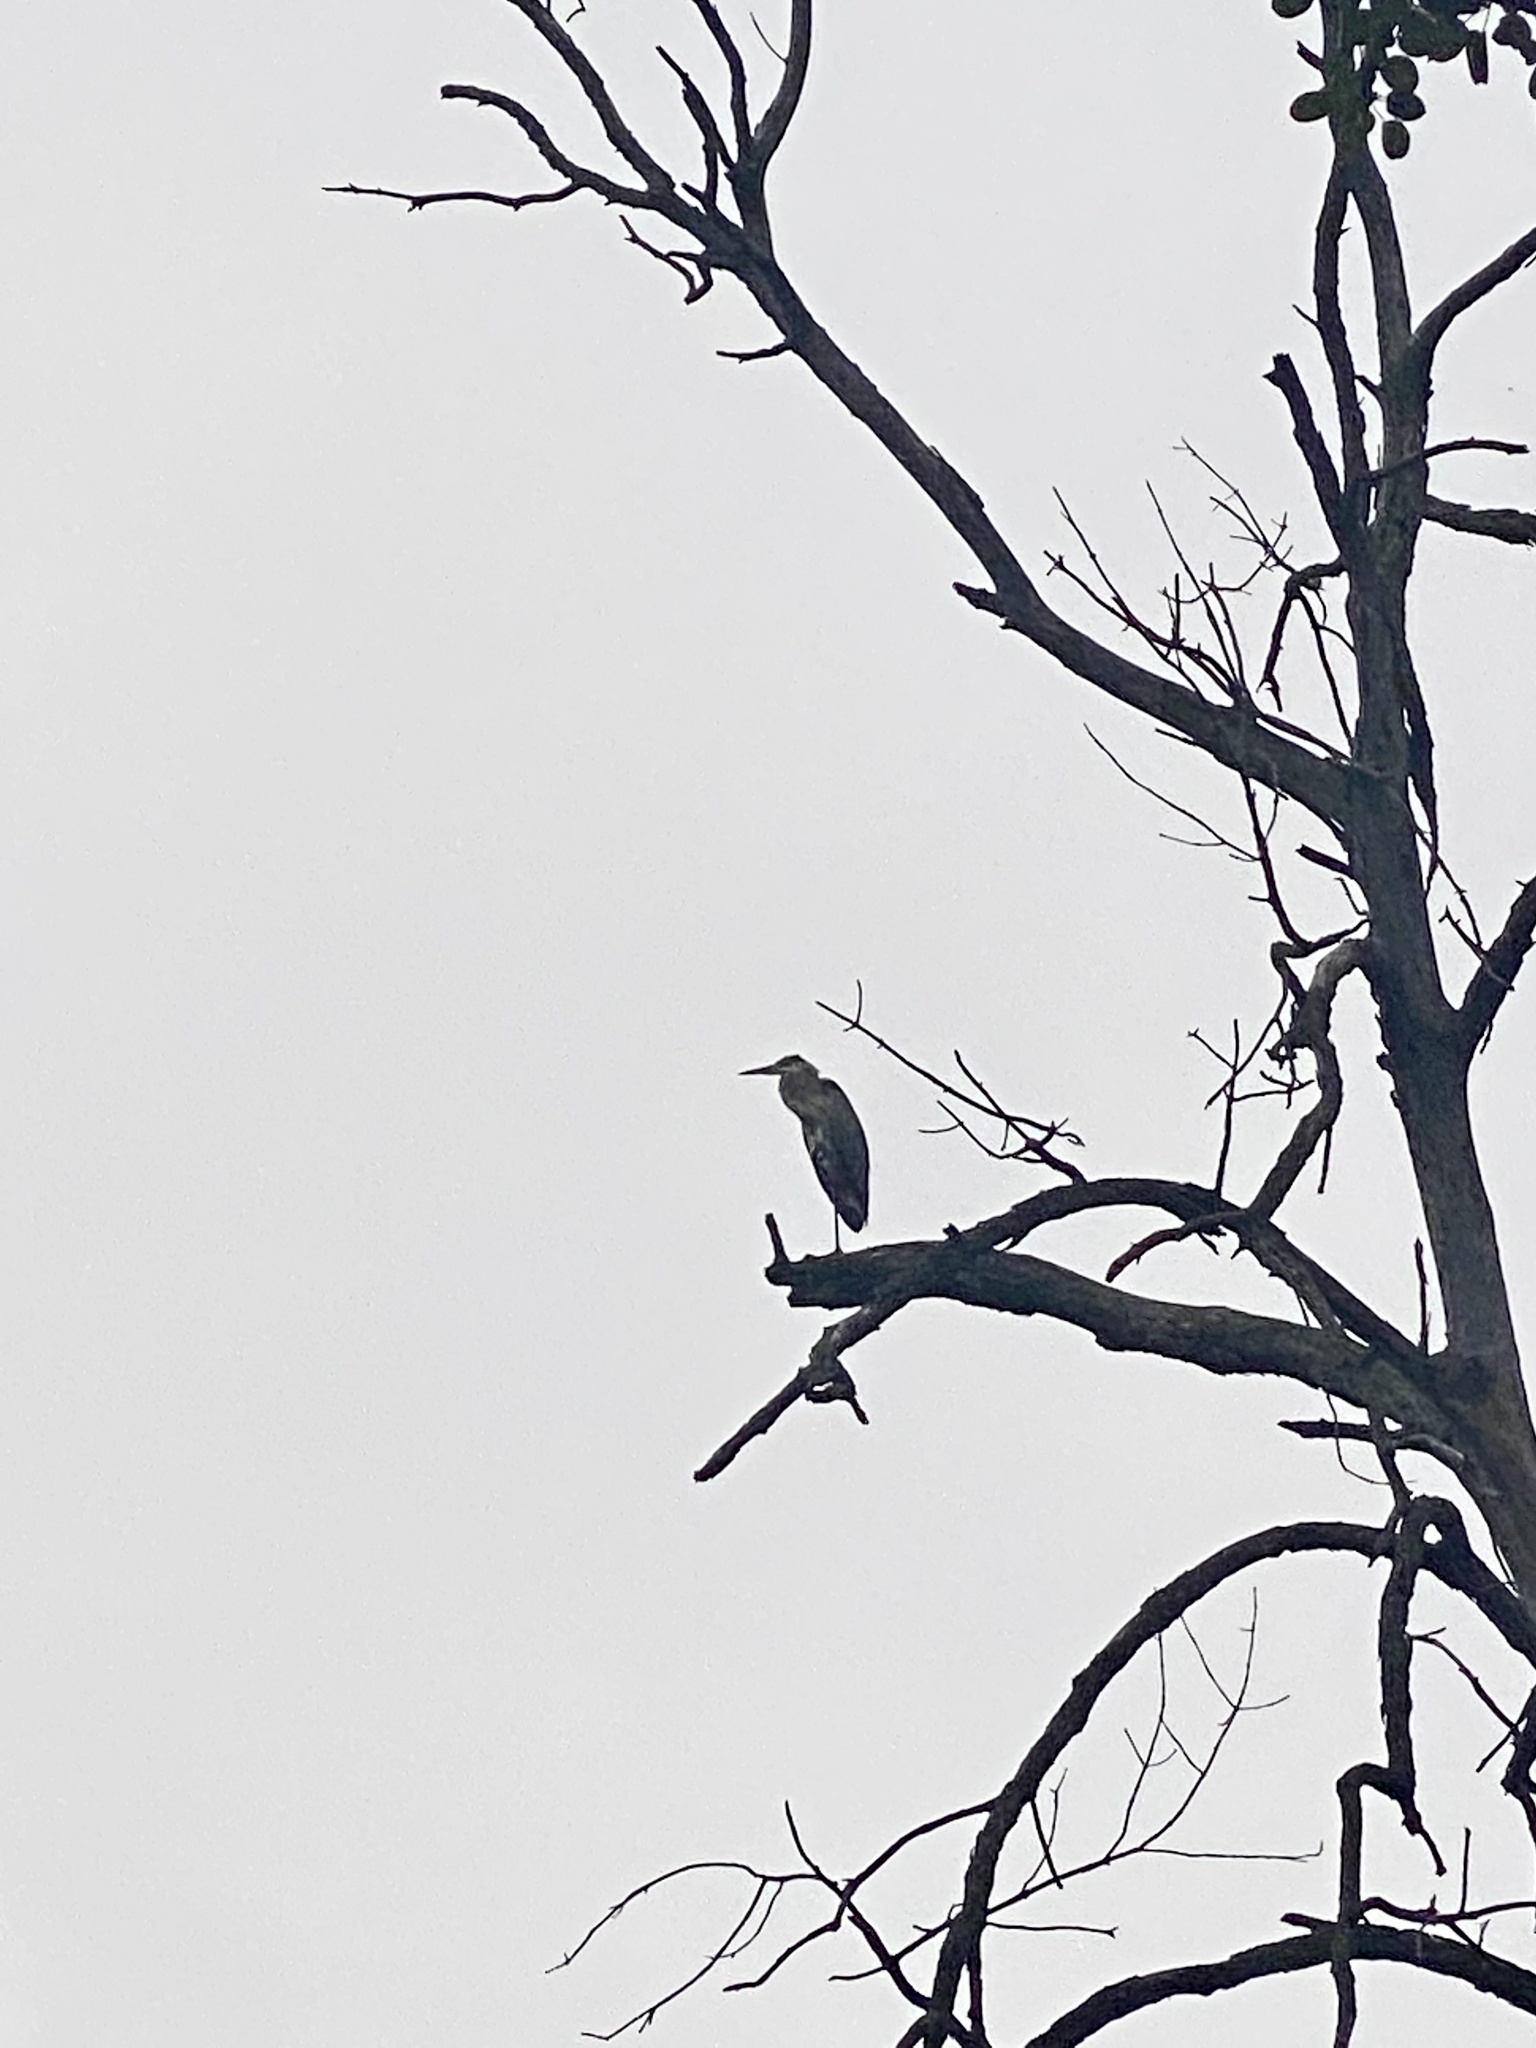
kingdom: Animalia
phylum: Chordata
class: Aves
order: Pelecaniformes
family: Ardeidae
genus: Ardea
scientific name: Ardea herodias
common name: Great blue heron
